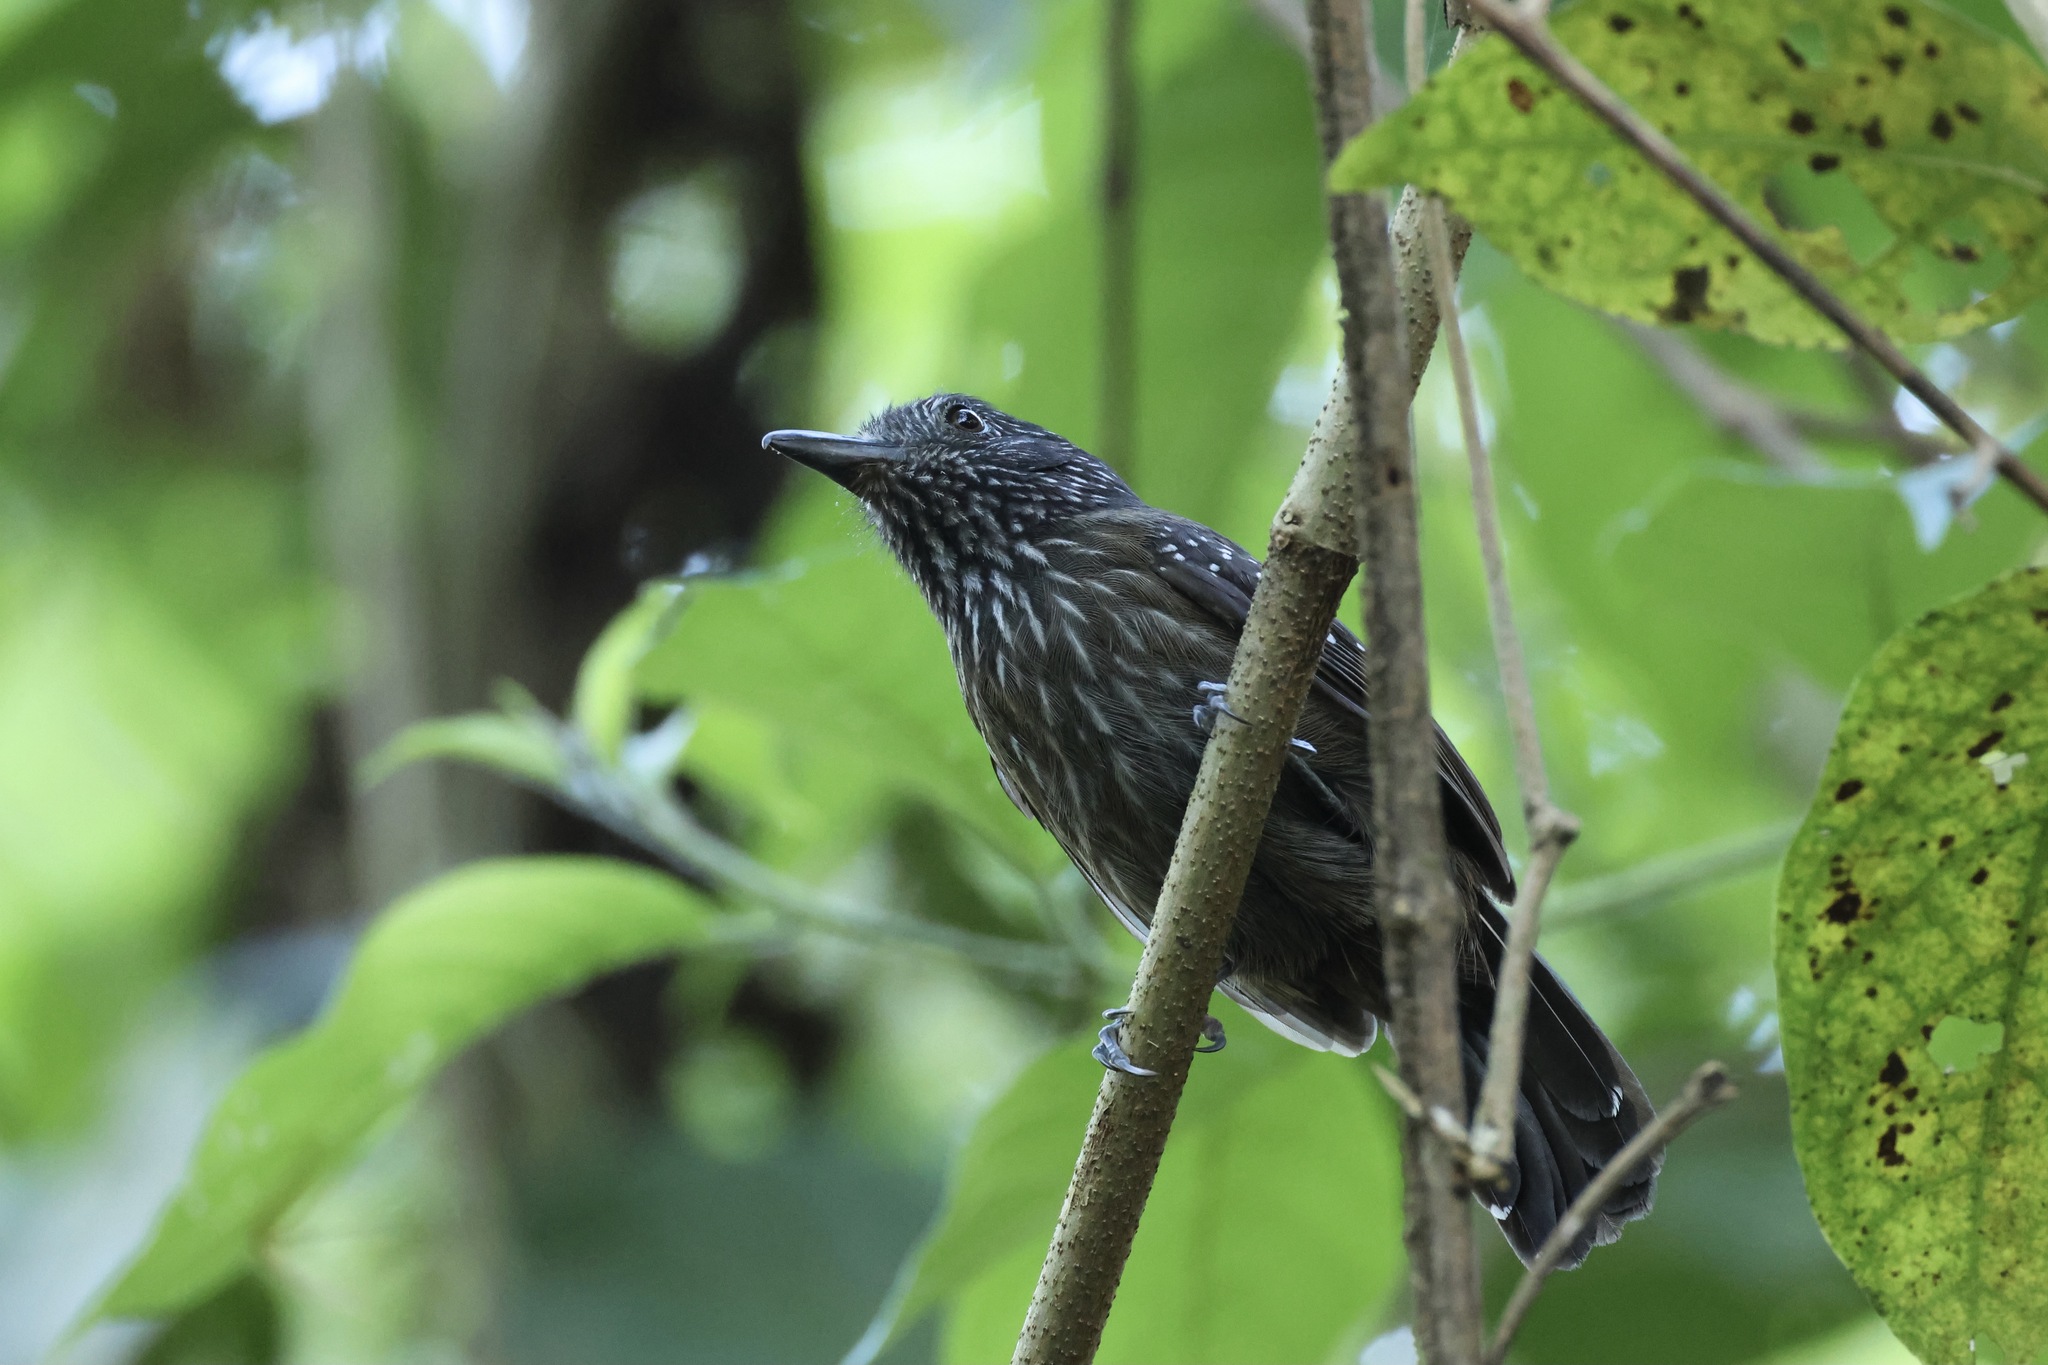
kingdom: Animalia
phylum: Chordata
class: Aves
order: Passeriformes
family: Thamnophilidae
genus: Thamnophilus
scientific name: Thamnophilus bridgesi
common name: Black-hooded antshrike
